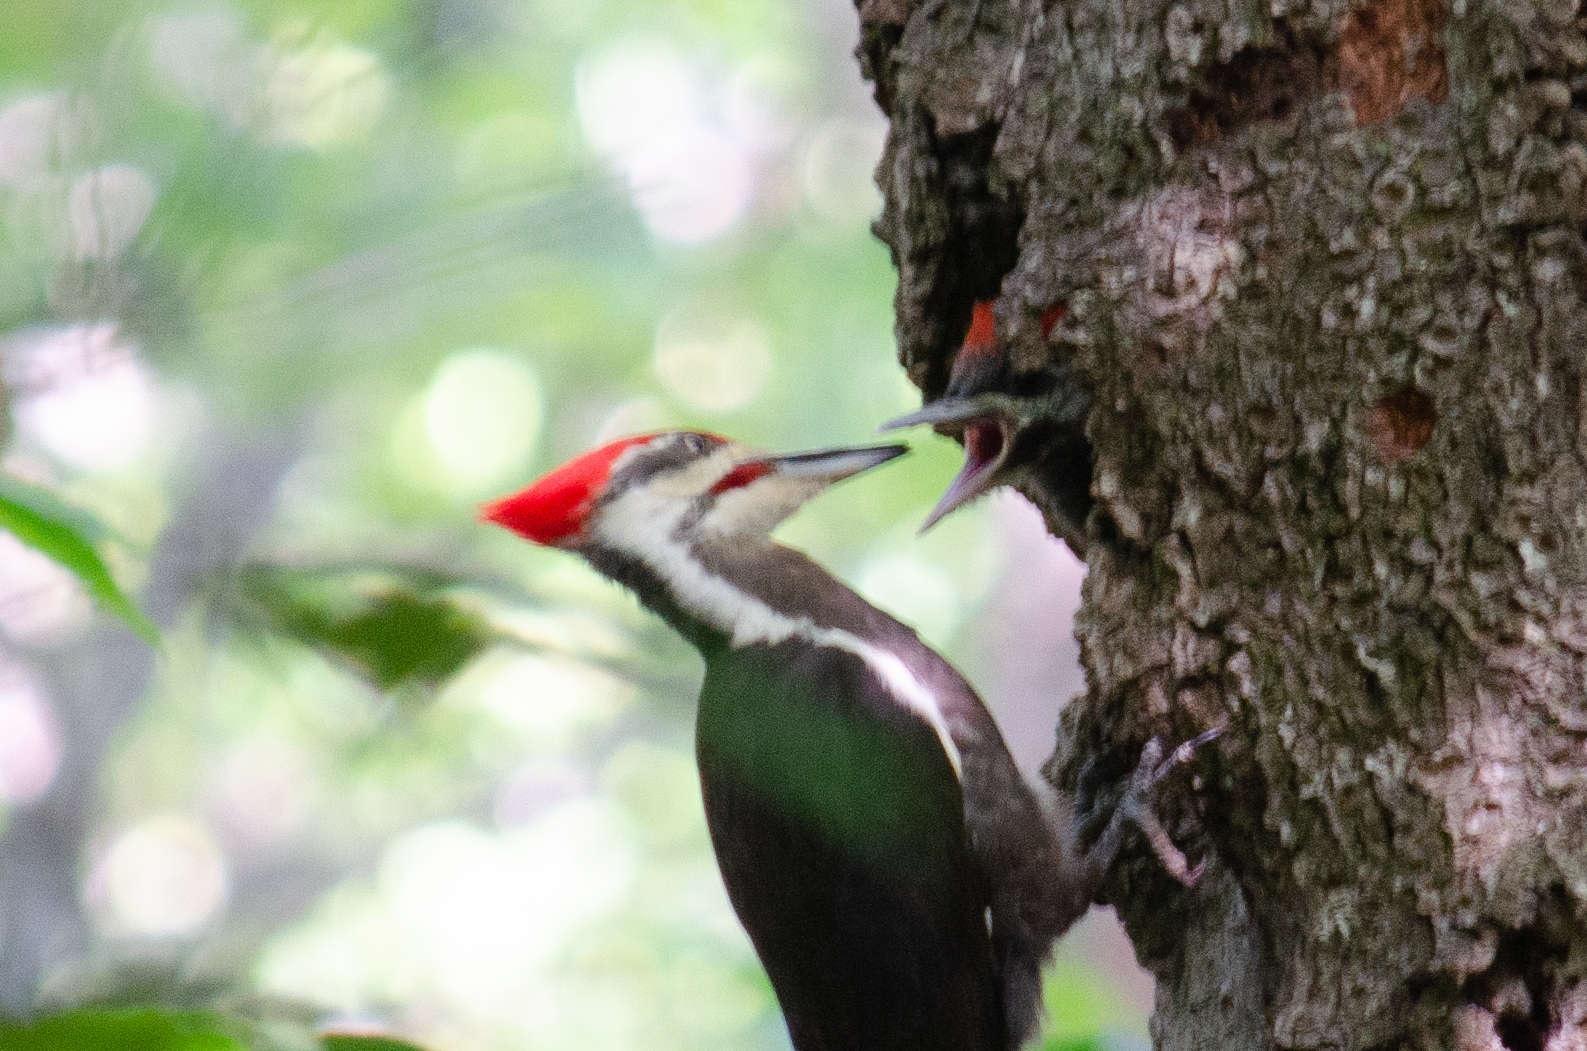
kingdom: Animalia
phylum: Chordata
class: Aves
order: Piciformes
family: Picidae
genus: Dryocopus
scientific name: Dryocopus pileatus
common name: Pileated woodpecker
